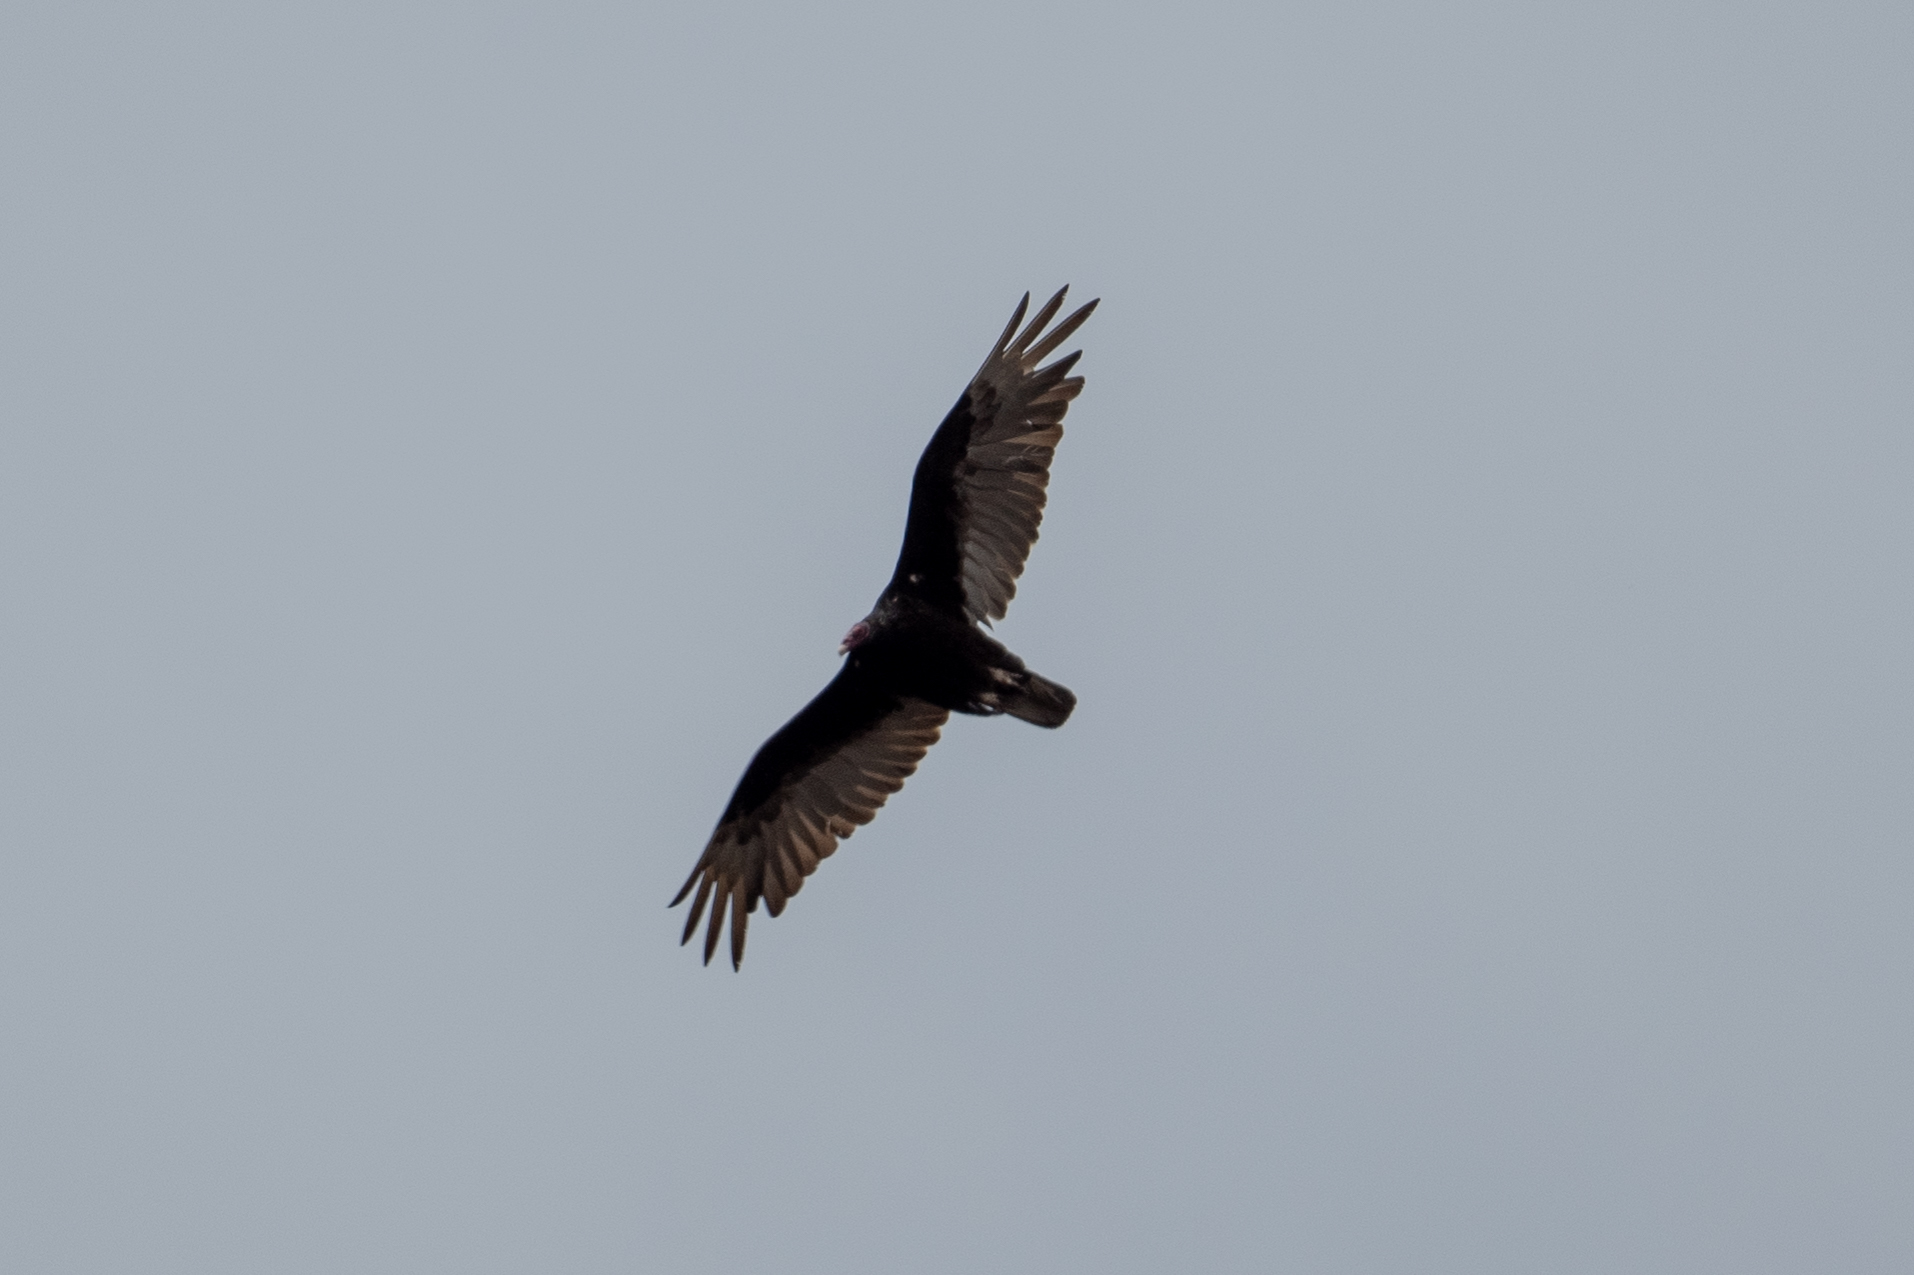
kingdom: Animalia
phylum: Chordata
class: Aves
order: Accipitriformes
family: Cathartidae
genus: Cathartes
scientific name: Cathartes aura
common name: Turkey vulture
